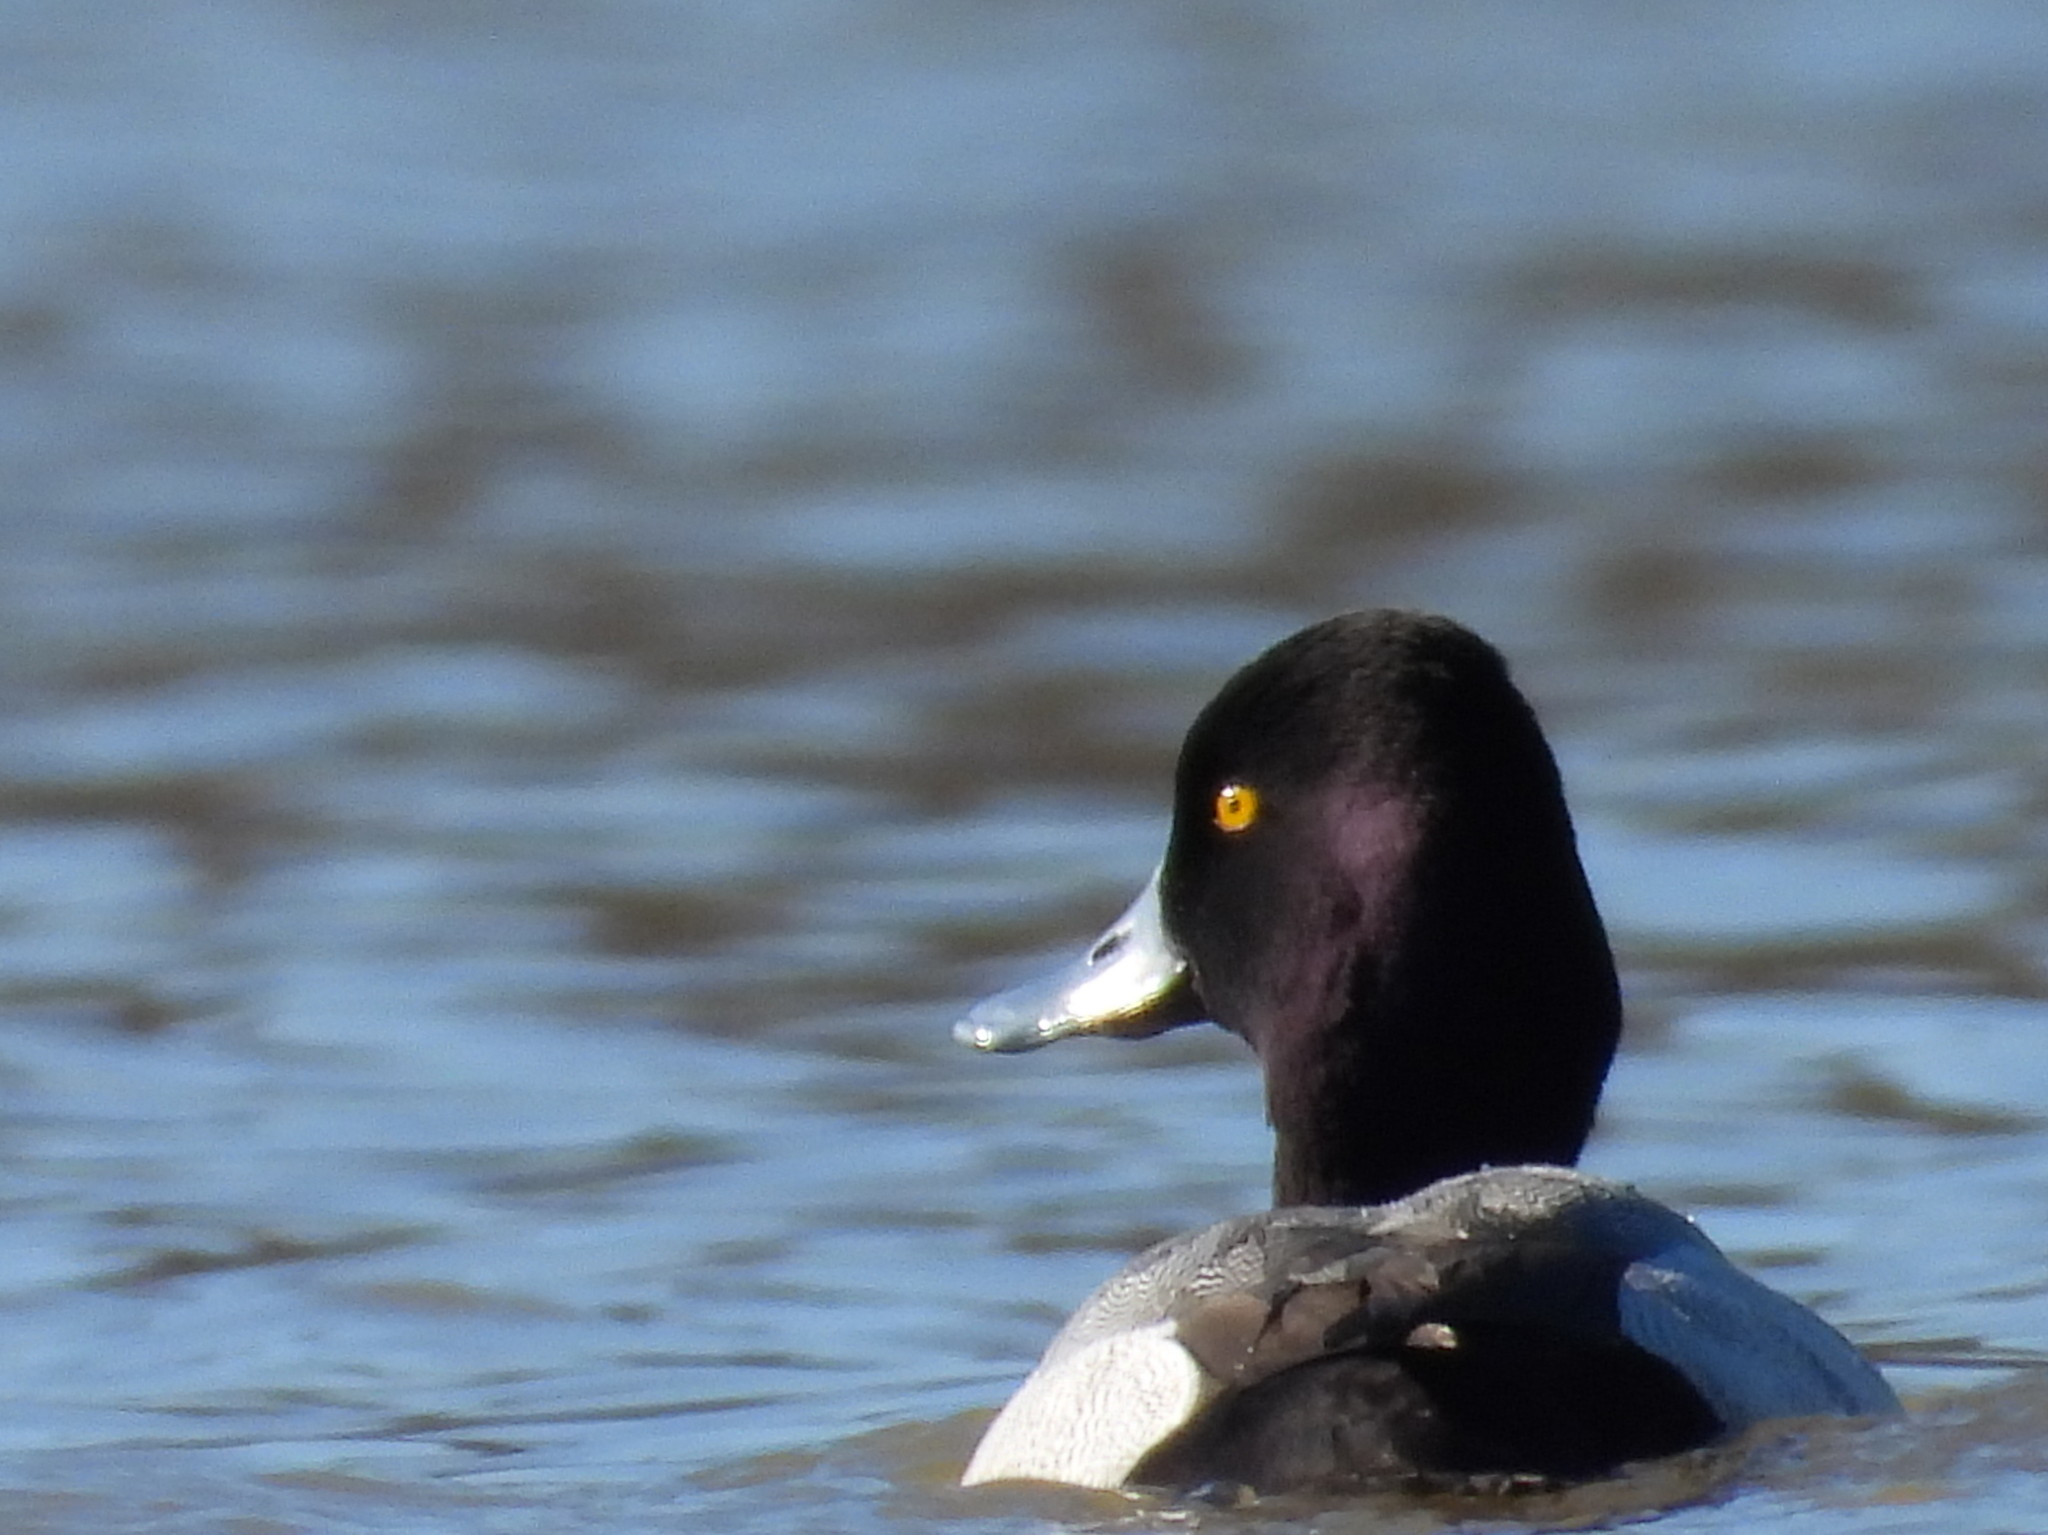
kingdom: Animalia
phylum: Chordata
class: Aves
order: Anseriformes
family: Anatidae
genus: Aythya
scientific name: Aythya affinis
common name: Lesser scaup
